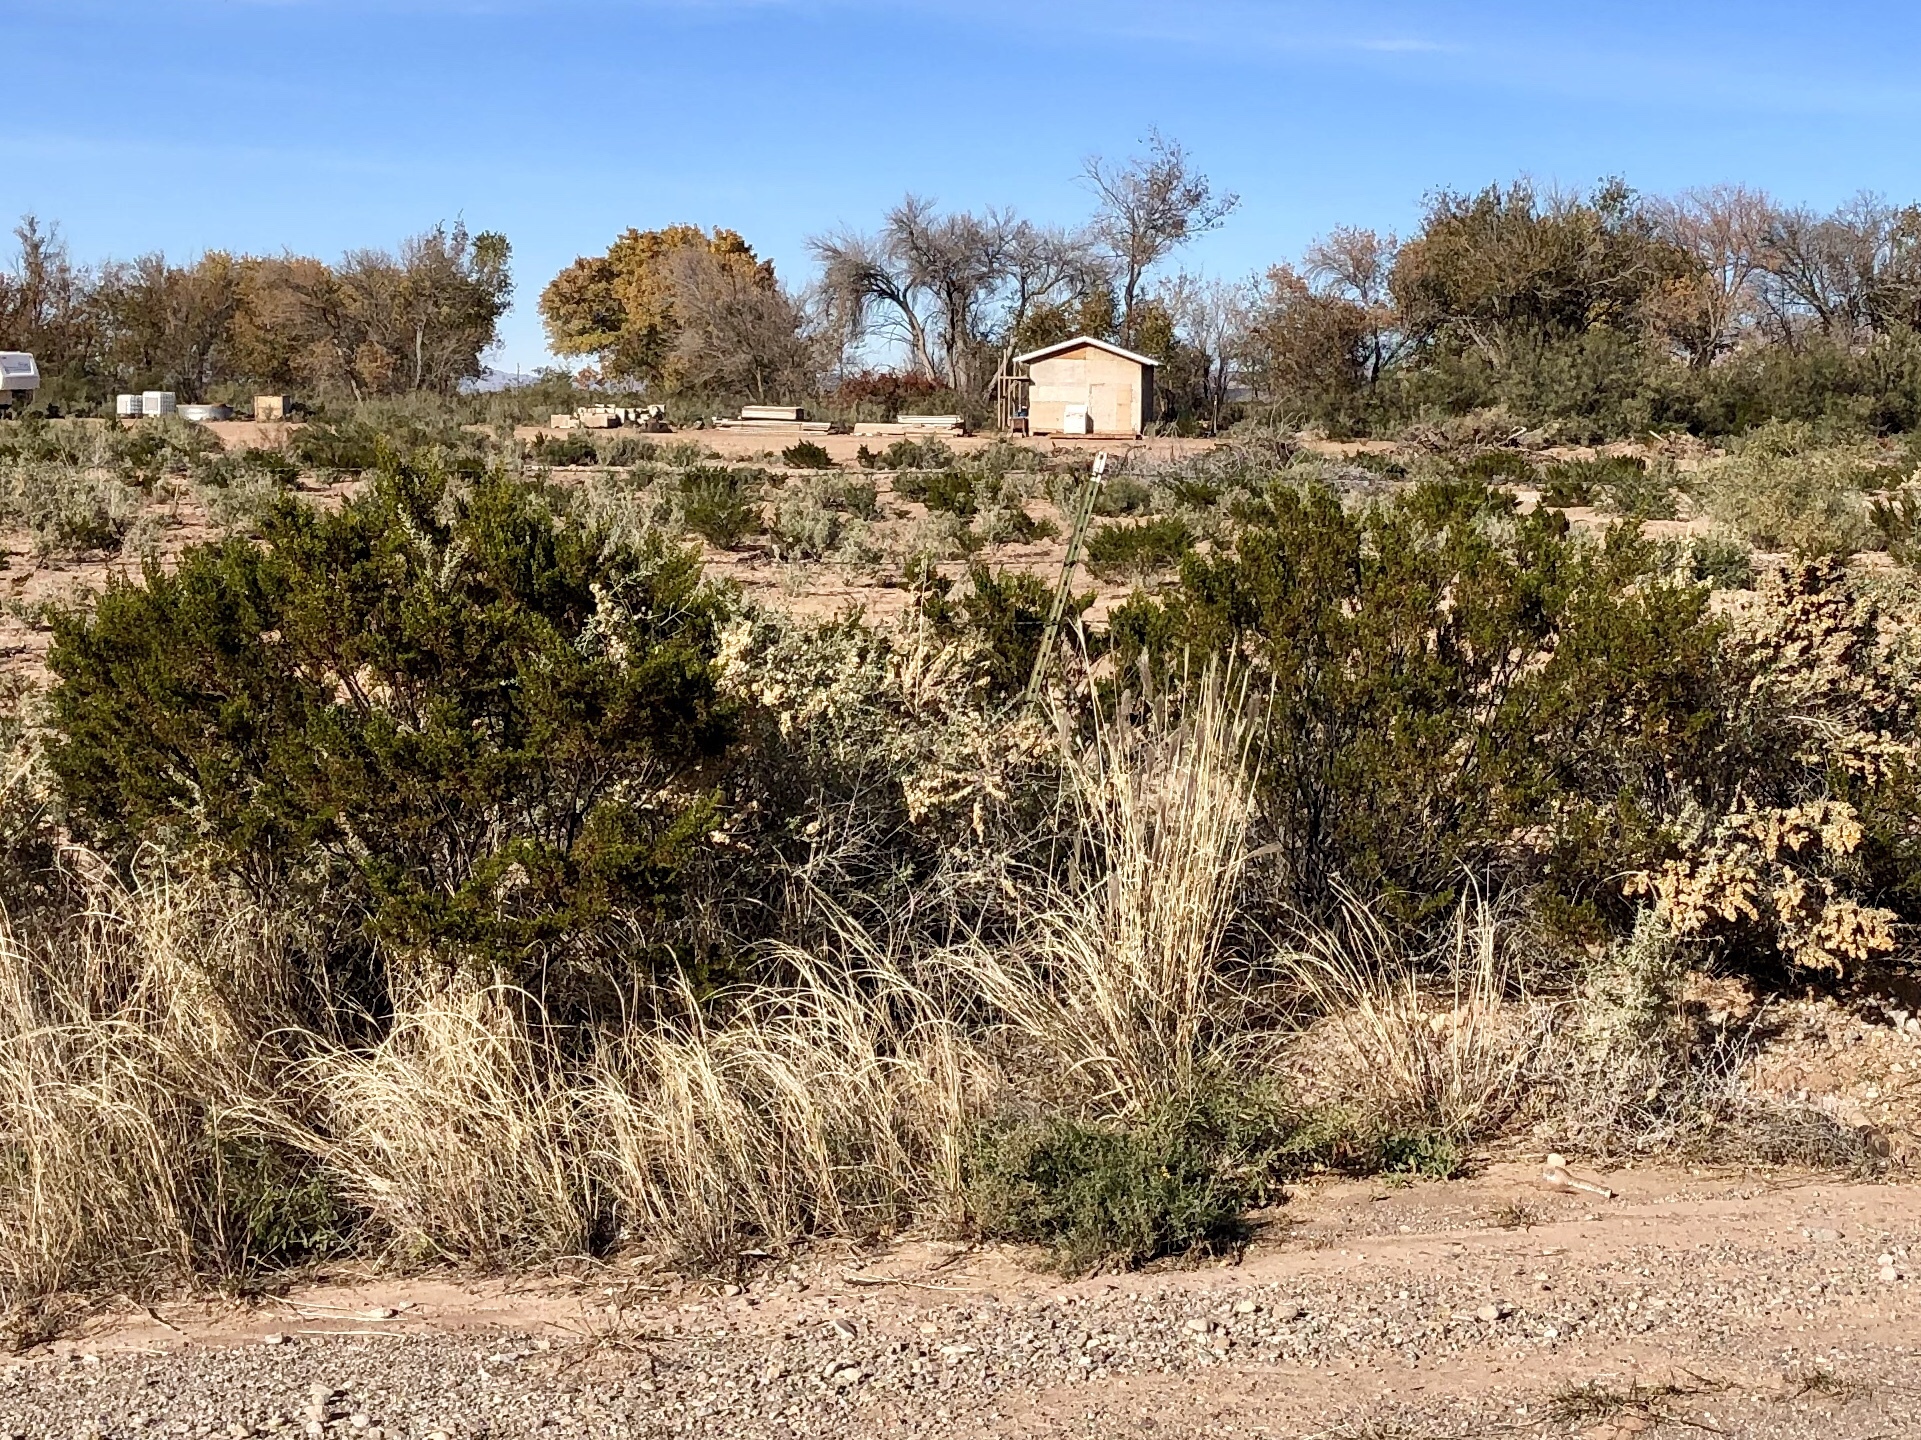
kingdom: Plantae
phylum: Tracheophyta
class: Magnoliopsida
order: Zygophyllales
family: Zygophyllaceae
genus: Larrea
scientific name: Larrea tridentata
